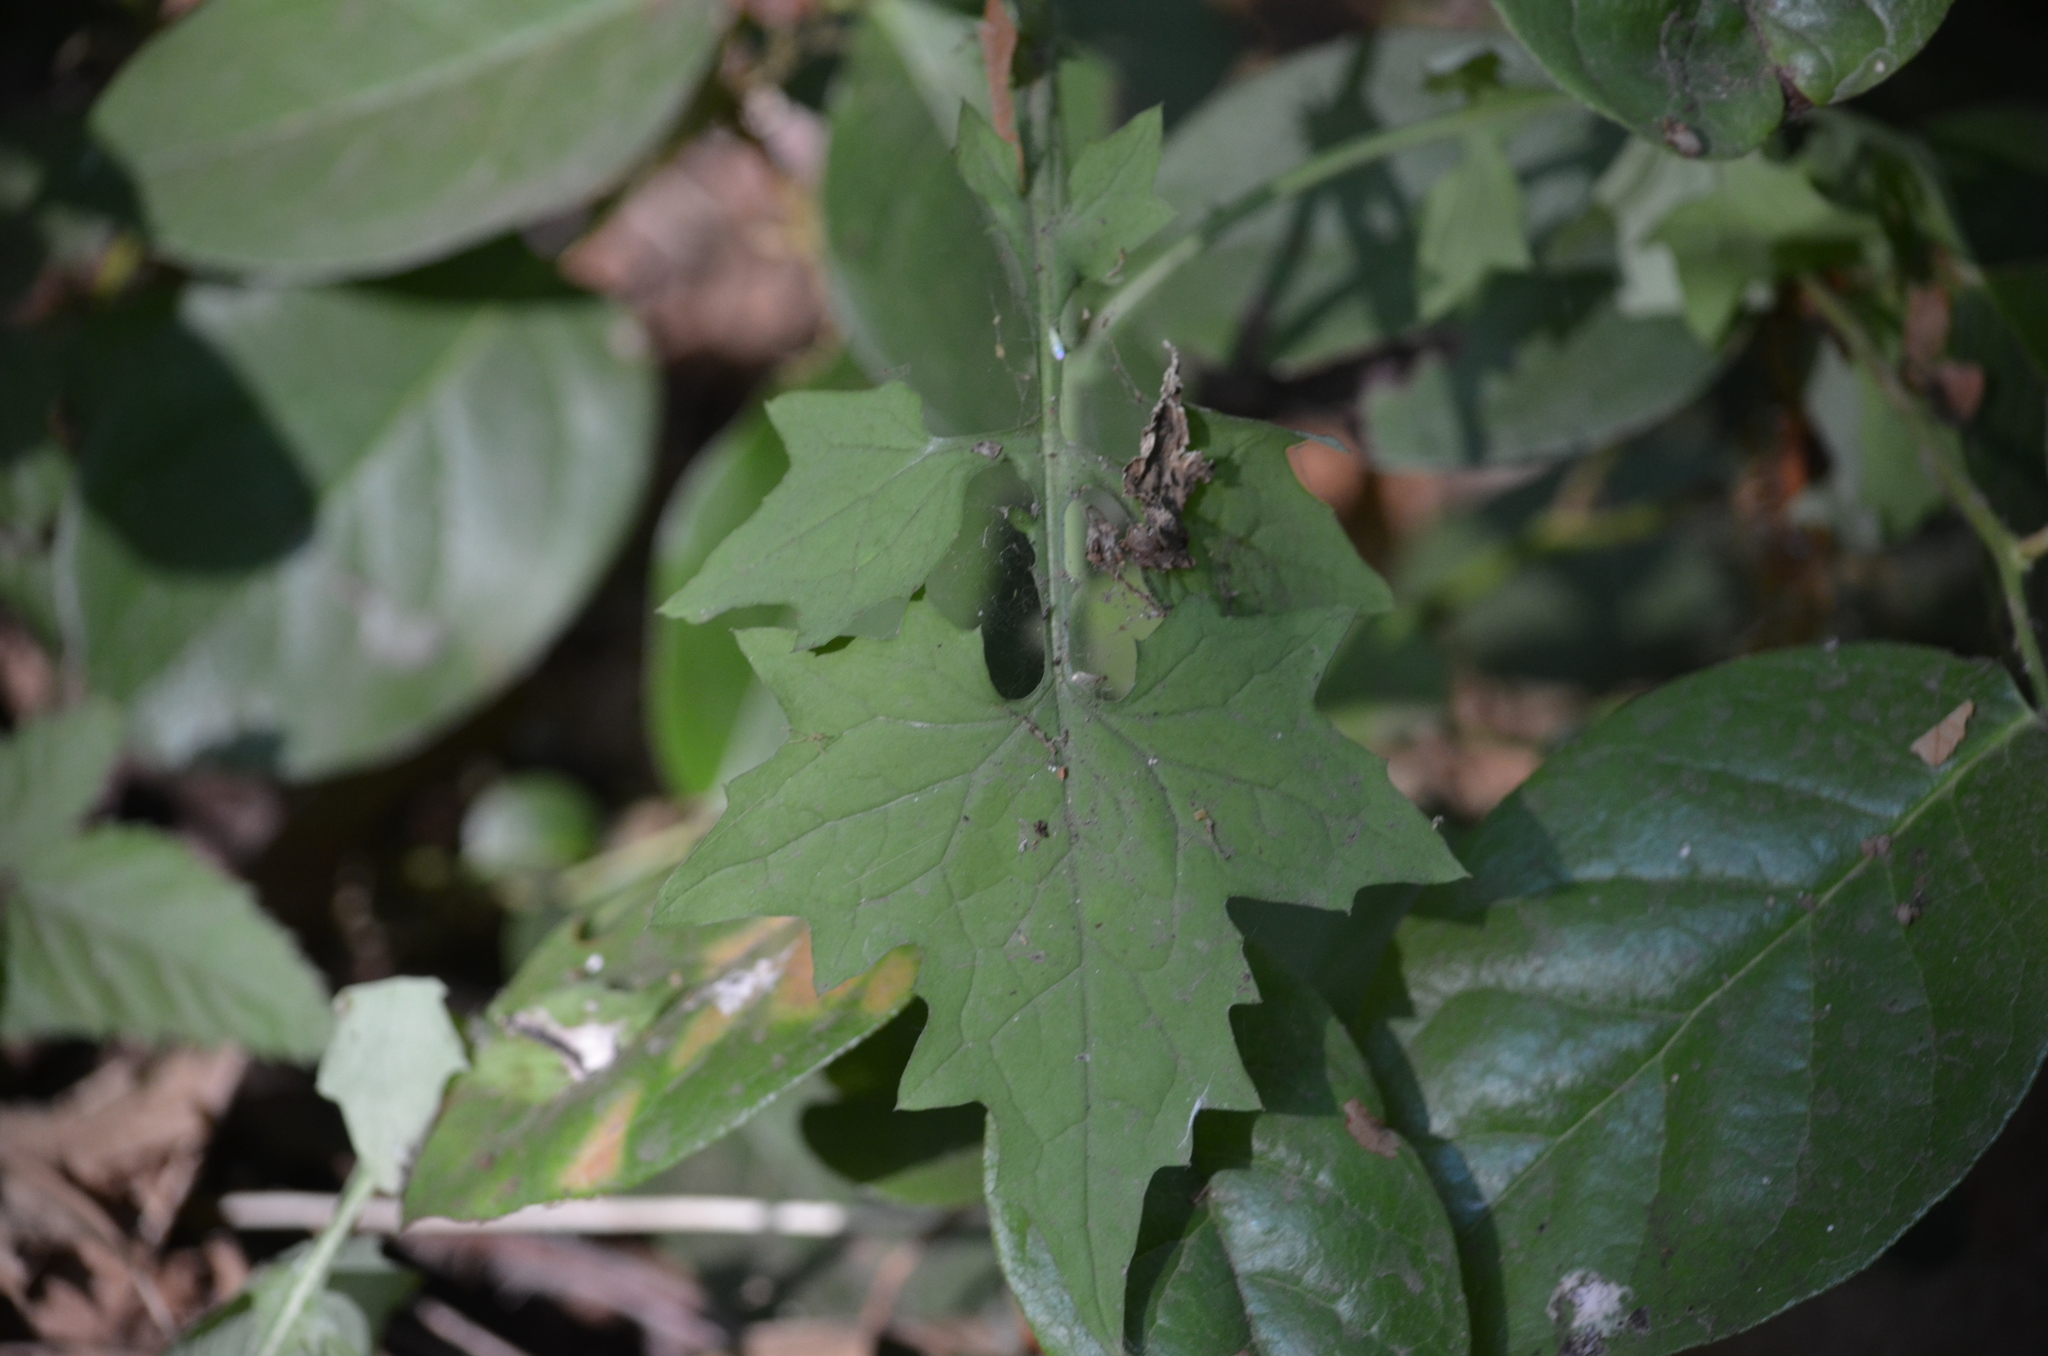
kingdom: Plantae
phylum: Tracheophyta
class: Magnoliopsida
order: Asterales
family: Asteraceae
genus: Mycelis
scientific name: Mycelis muralis
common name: Wall lettuce
